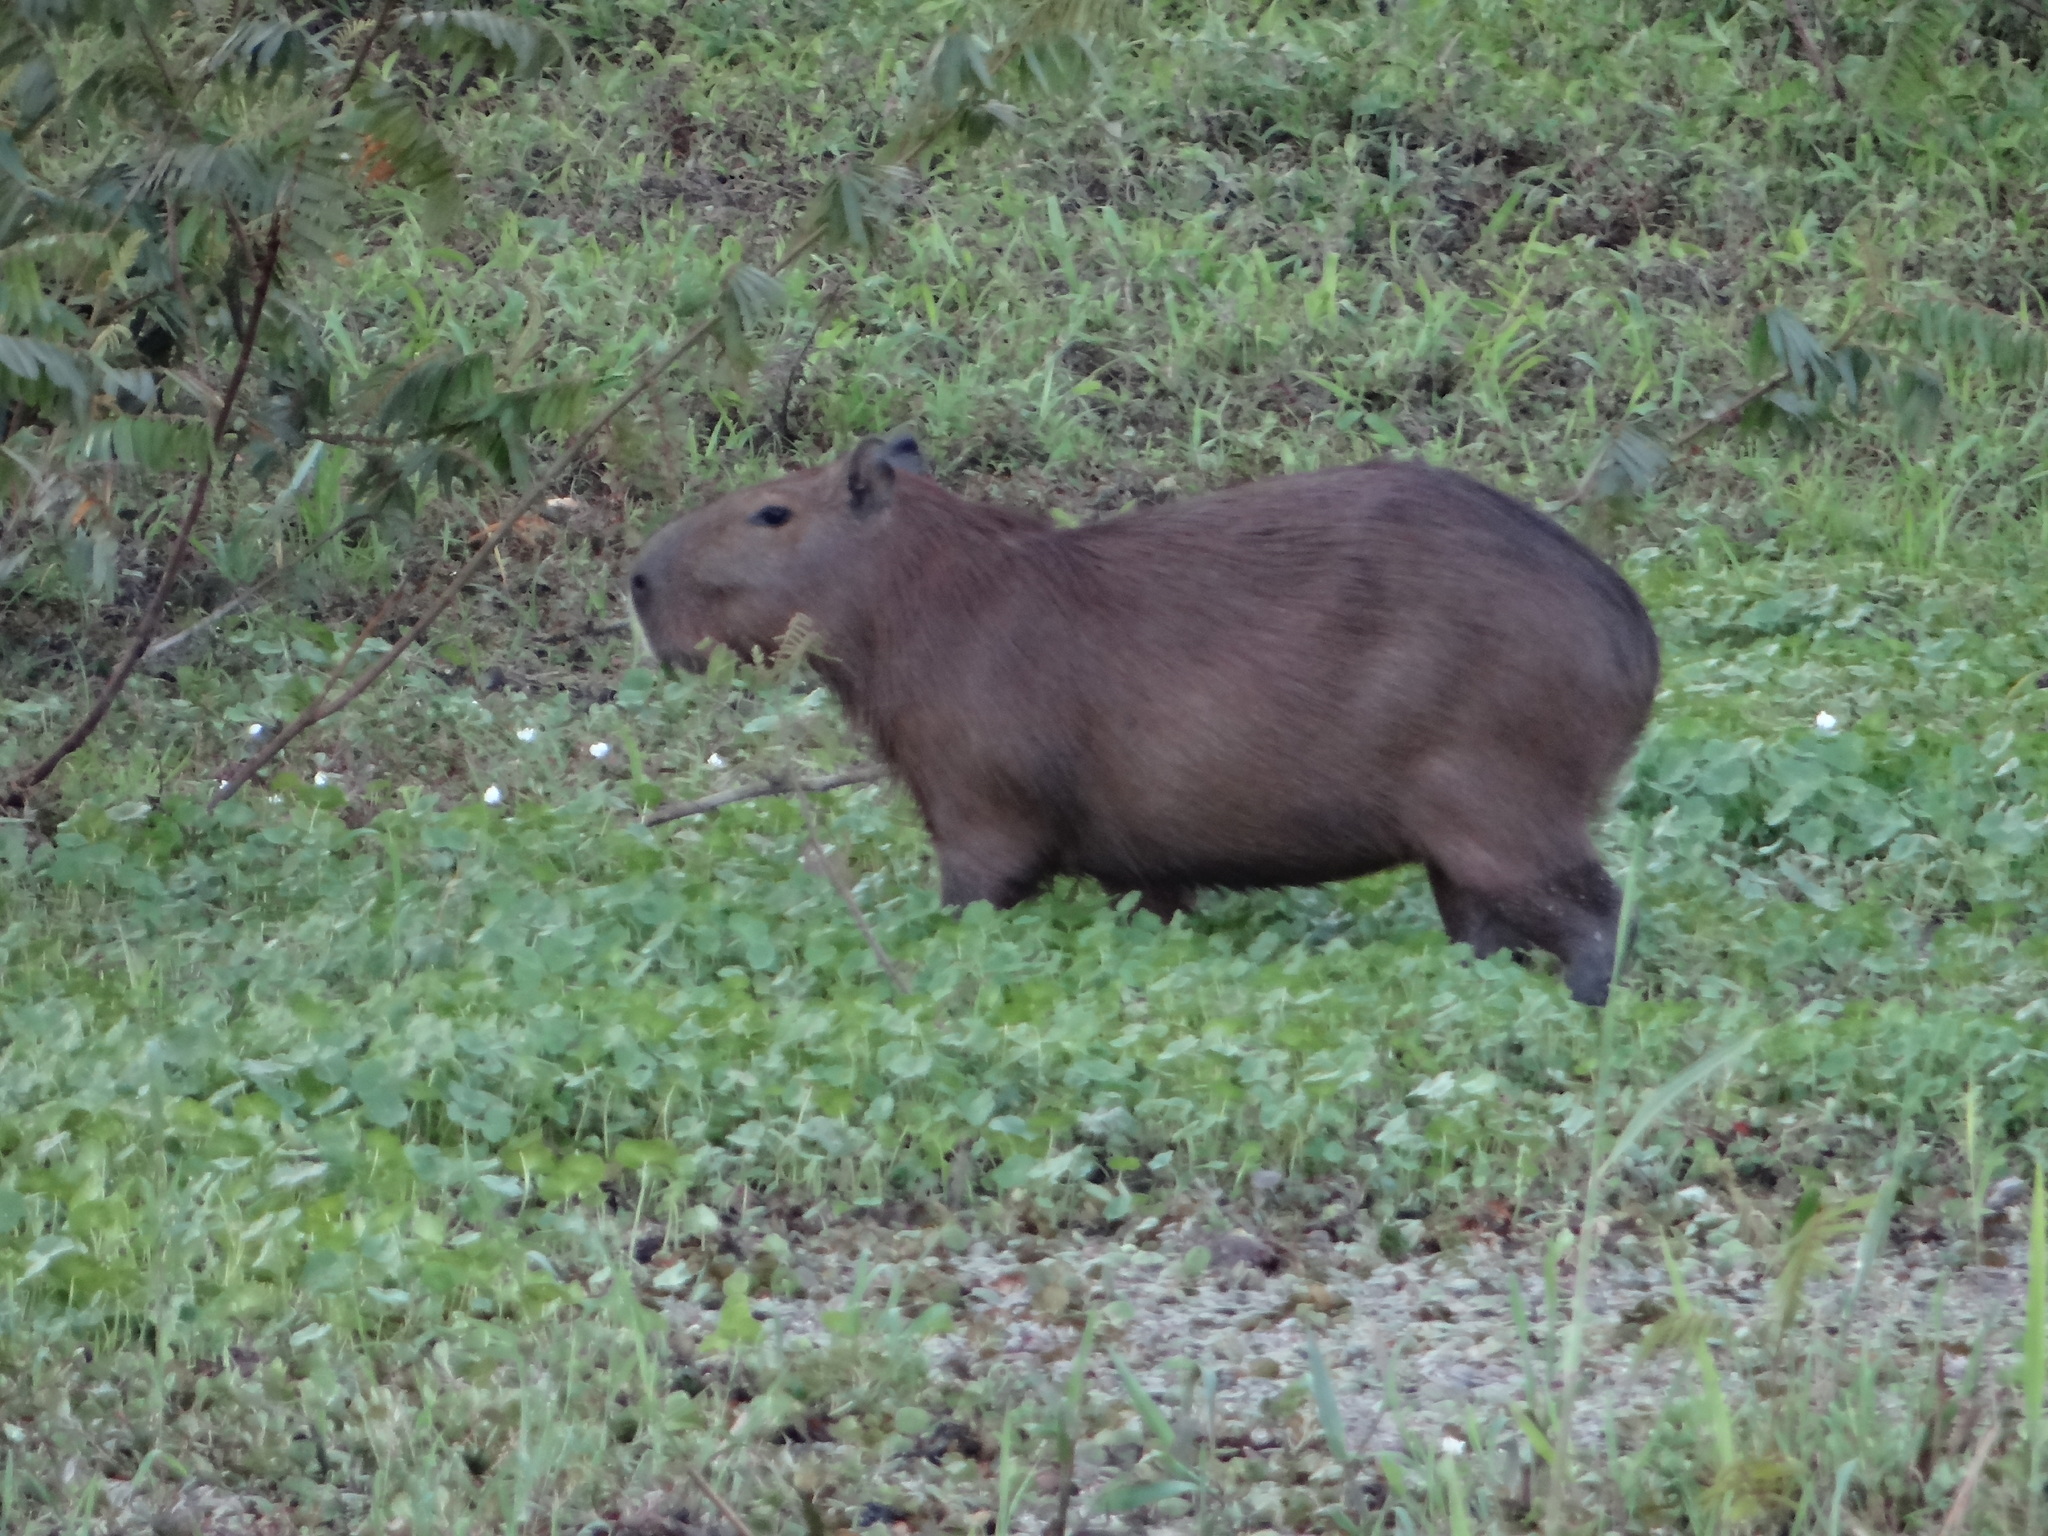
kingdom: Animalia
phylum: Chordata
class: Mammalia
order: Rodentia
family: Caviidae
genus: Hydrochoerus
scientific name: Hydrochoerus hydrochaeris
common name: Capybara
